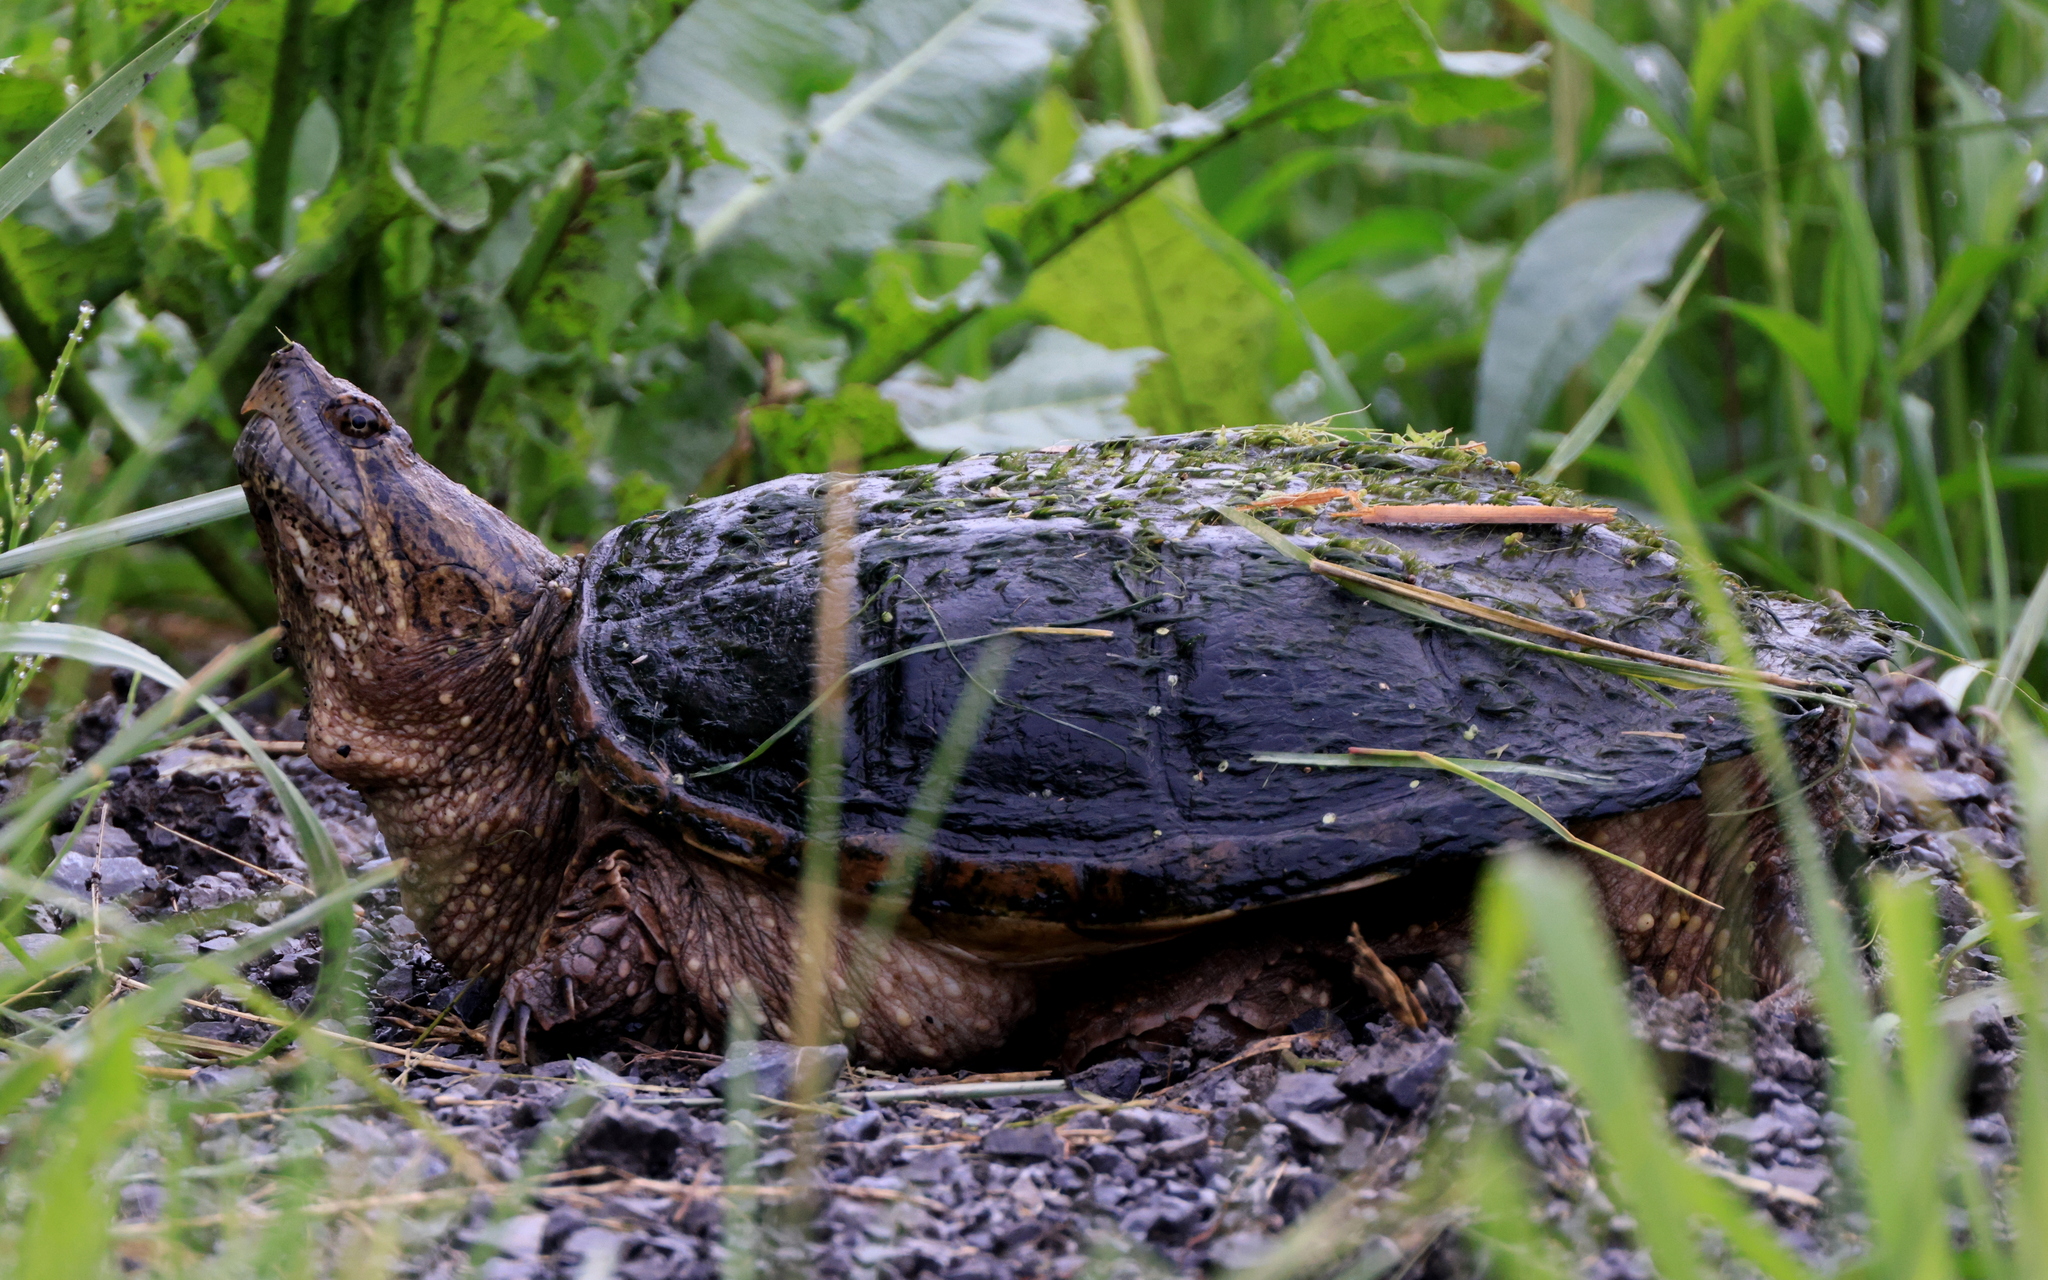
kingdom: Animalia
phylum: Chordata
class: Testudines
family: Chelydridae
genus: Chelydra
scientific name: Chelydra serpentina
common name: Common snapping turtle
